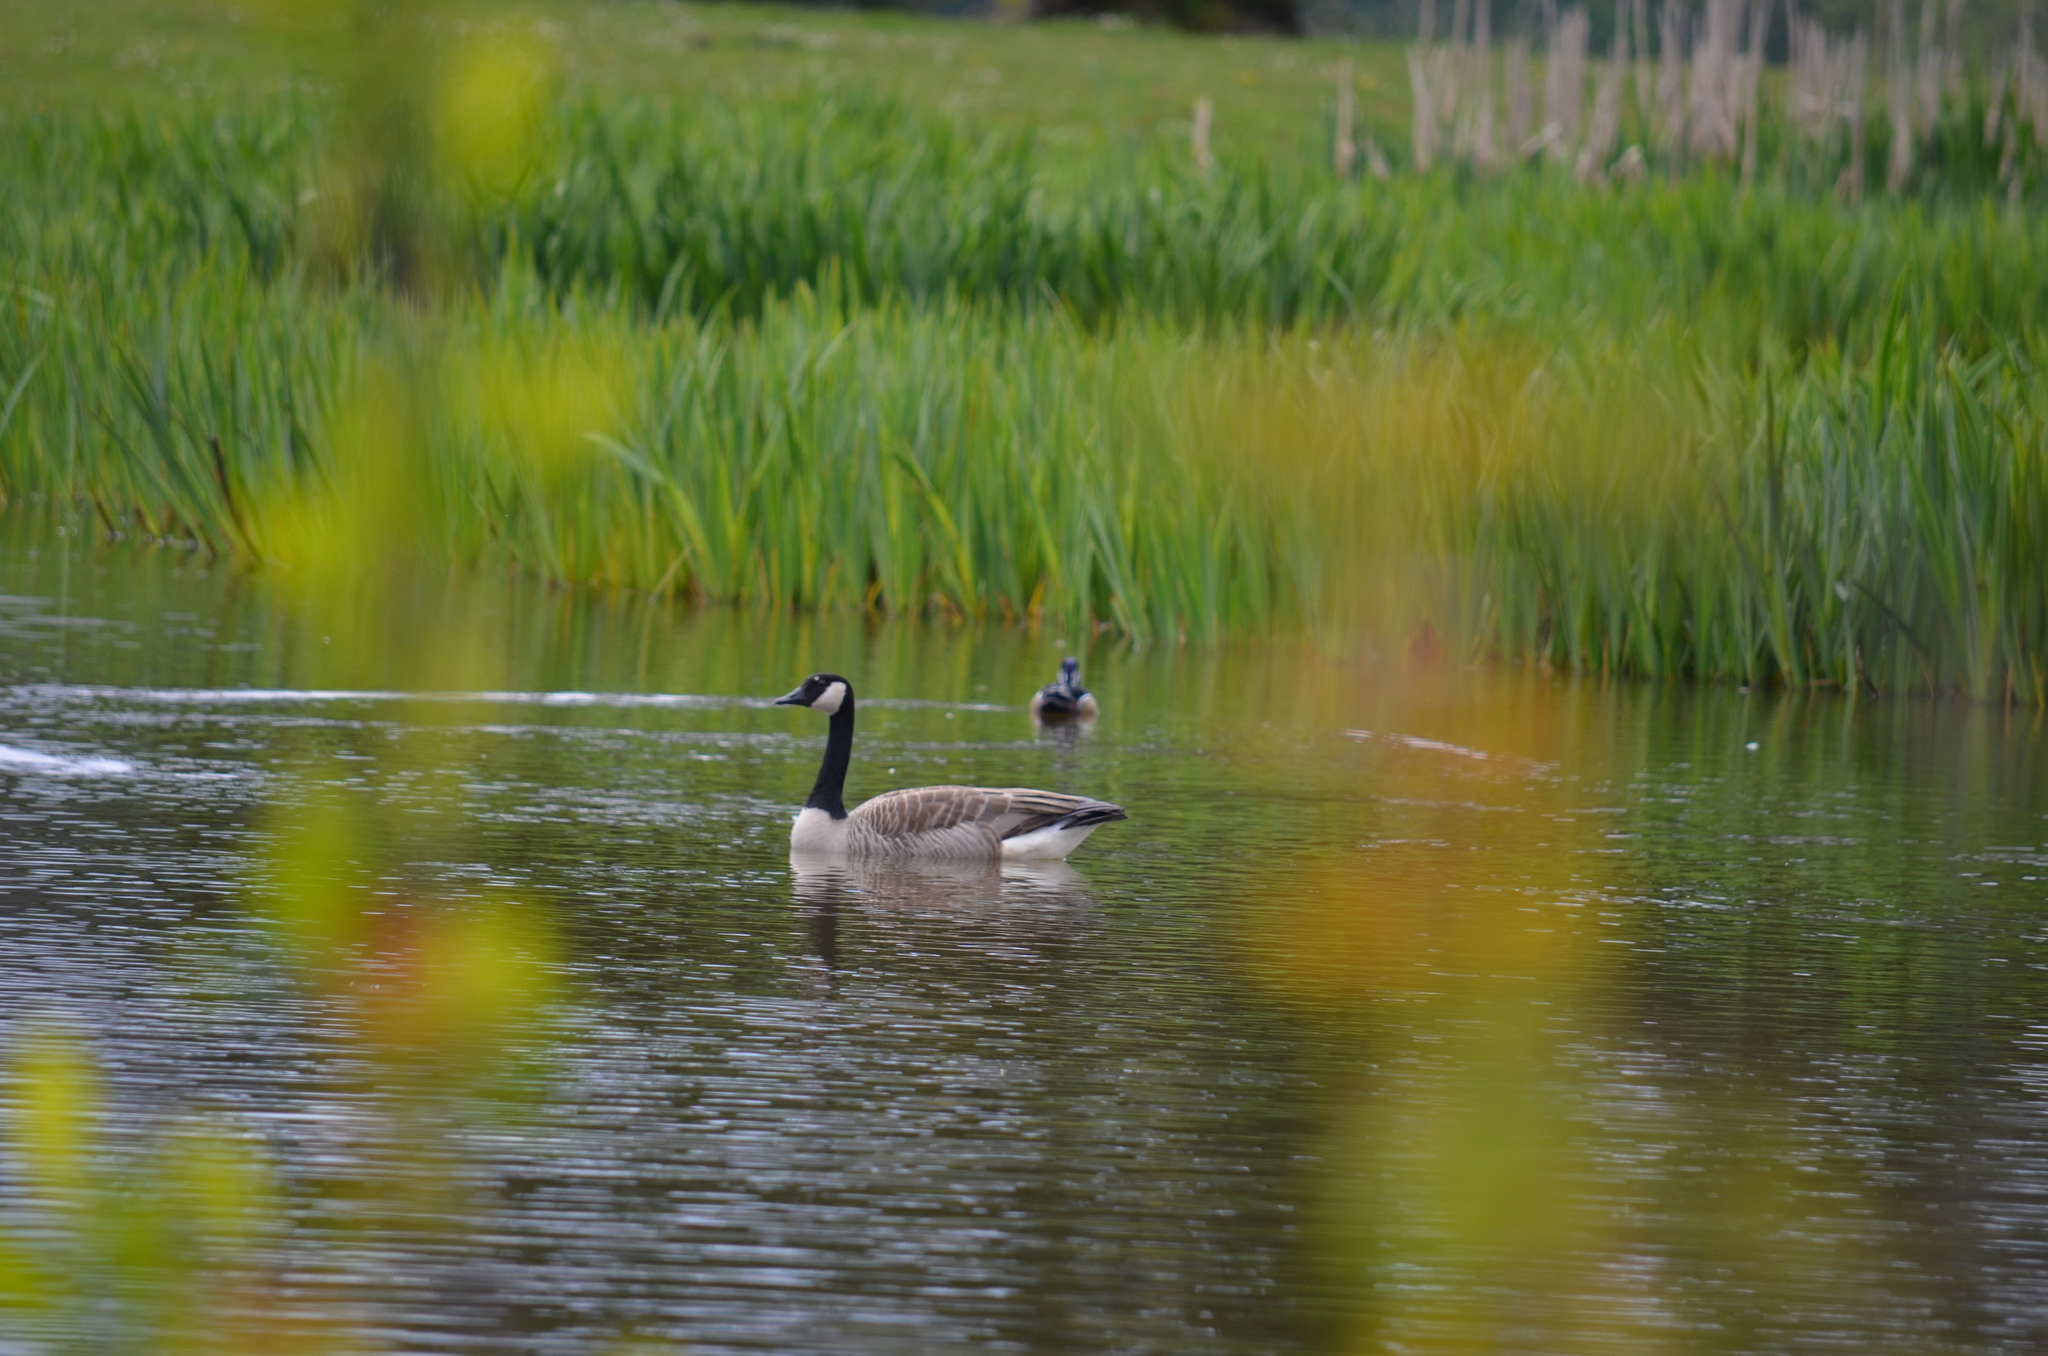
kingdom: Animalia
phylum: Chordata
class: Aves
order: Anseriformes
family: Anatidae
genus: Aix
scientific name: Aix sponsa
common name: Wood duck
